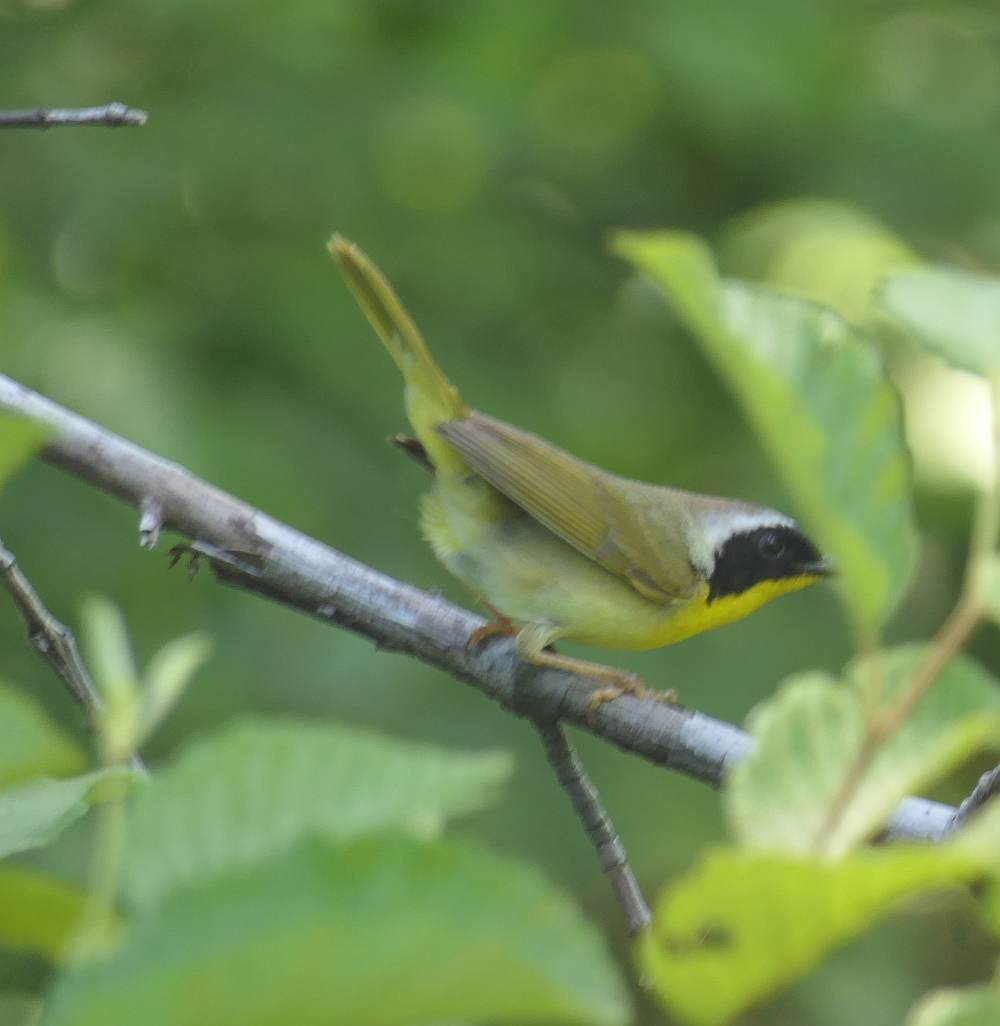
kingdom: Animalia
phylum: Chordata
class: Aves
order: Passeriformes
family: Parulidae
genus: Geothlypis
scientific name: Geothlypis trichas
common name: Common yellowthroat
